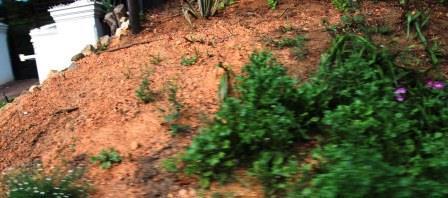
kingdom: Plantae
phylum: Tracheophyta
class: Magnoliopsida
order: Dipsacales
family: Caprifoliaceae
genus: Centranthus
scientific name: Centranthus ruber
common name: Red valerian
